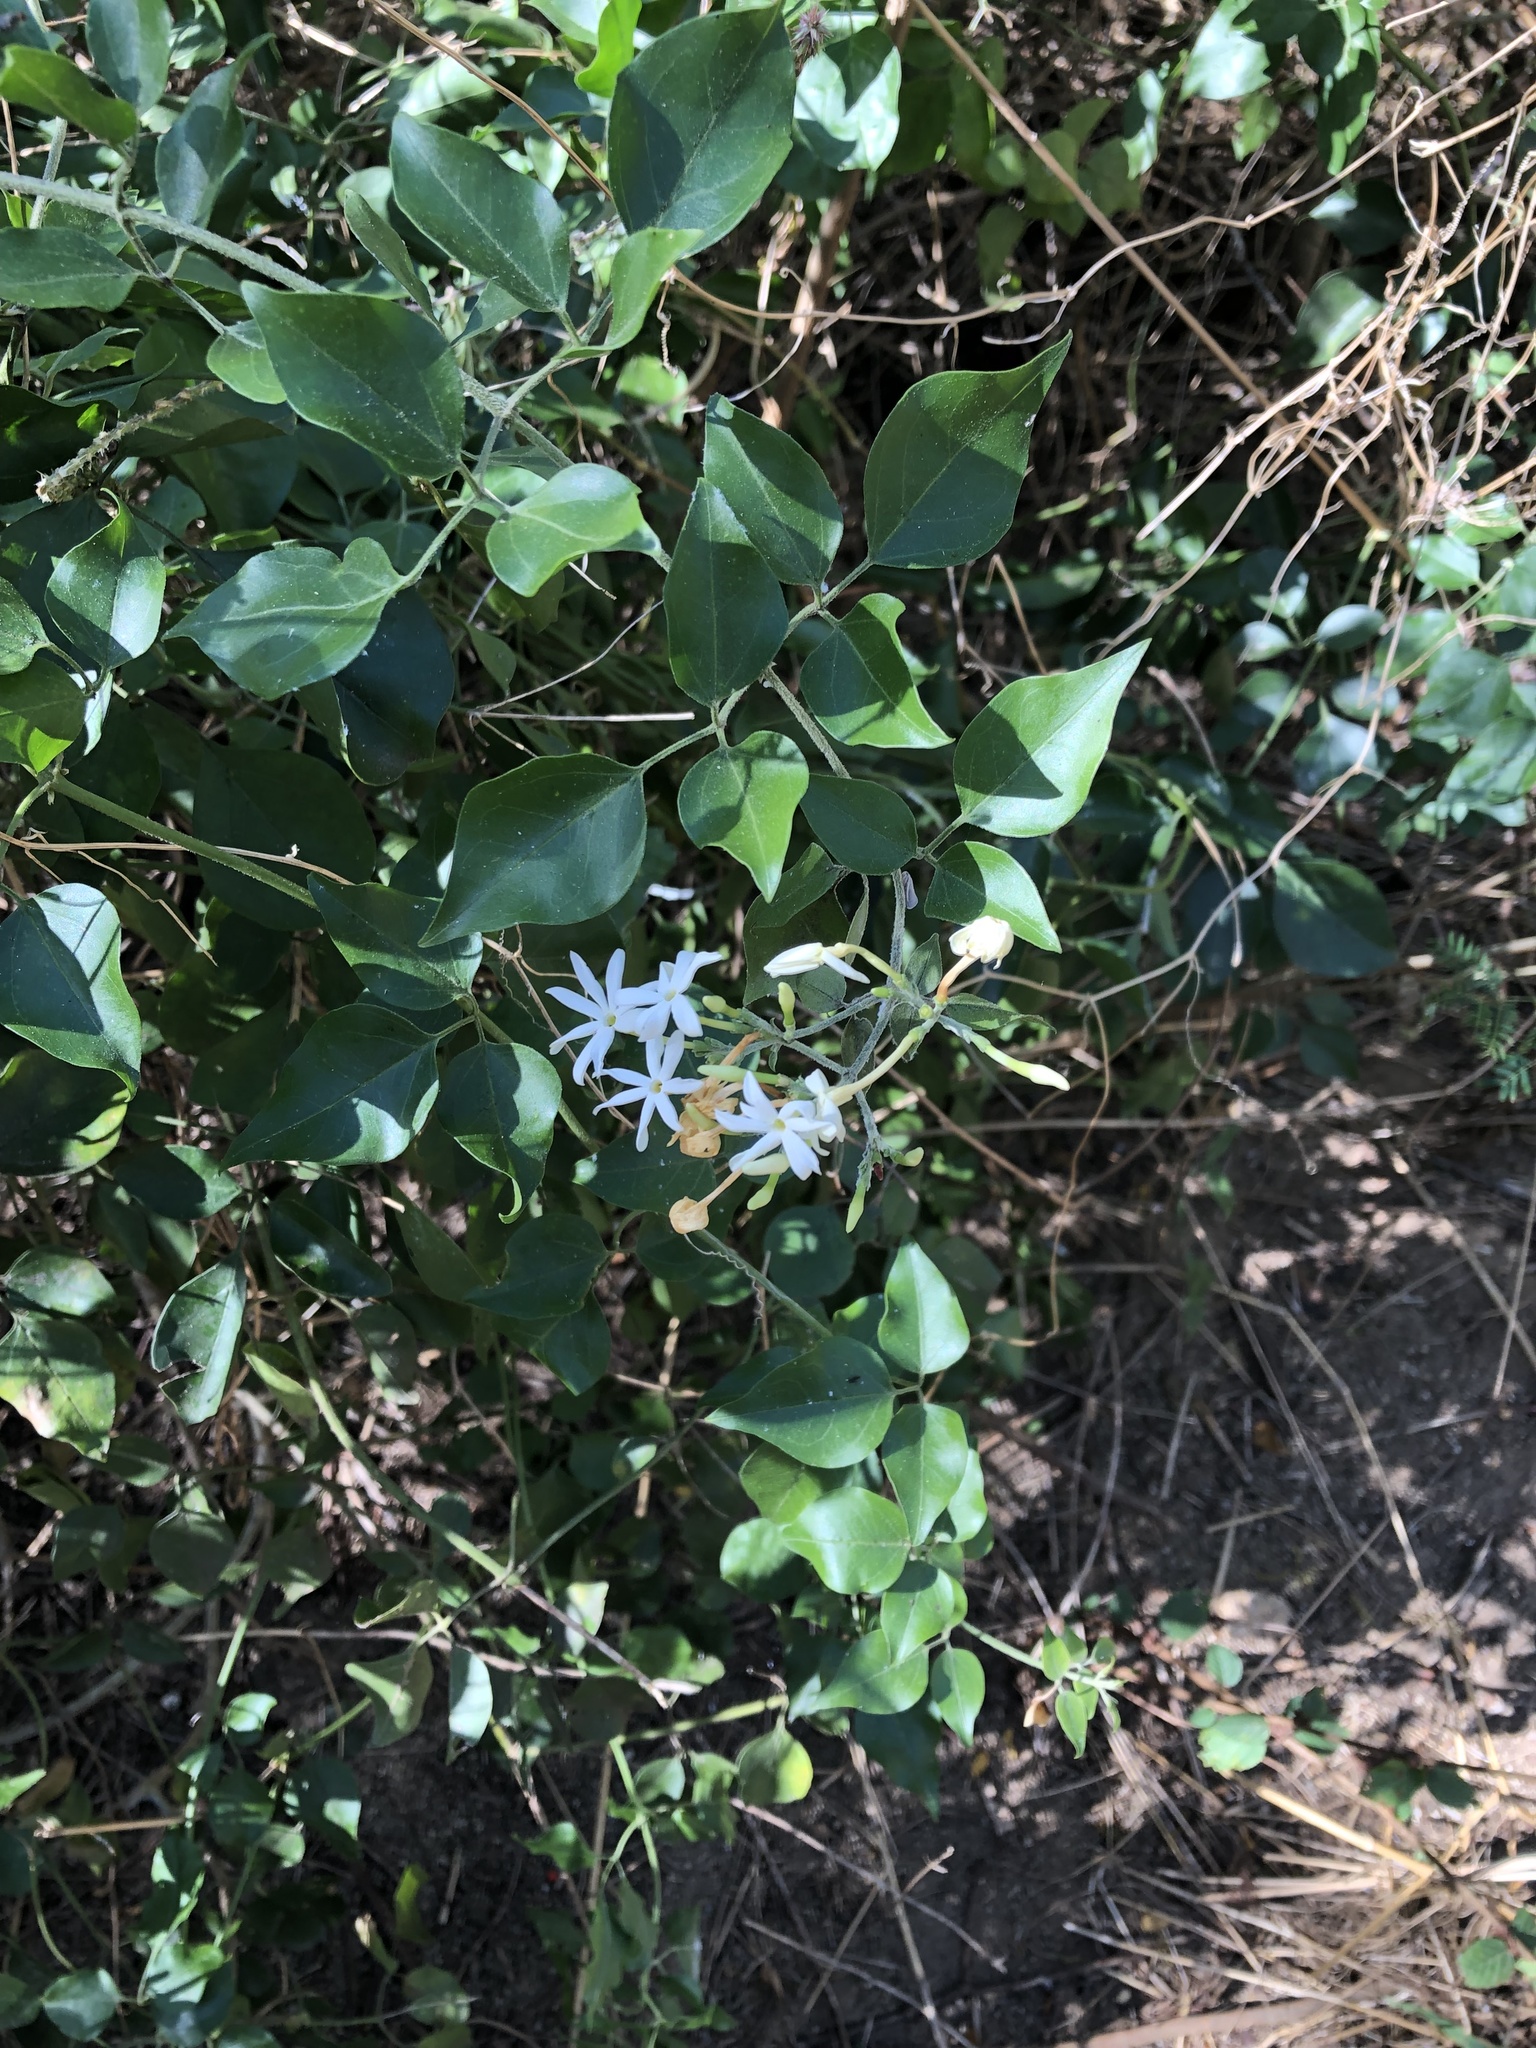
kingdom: Plantae
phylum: Tracheophyta
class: Magnoliopsida
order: Lamiales
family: Oleaceae
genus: Jasminum
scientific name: Jasminum fluminense
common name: Brazilian jasmine
